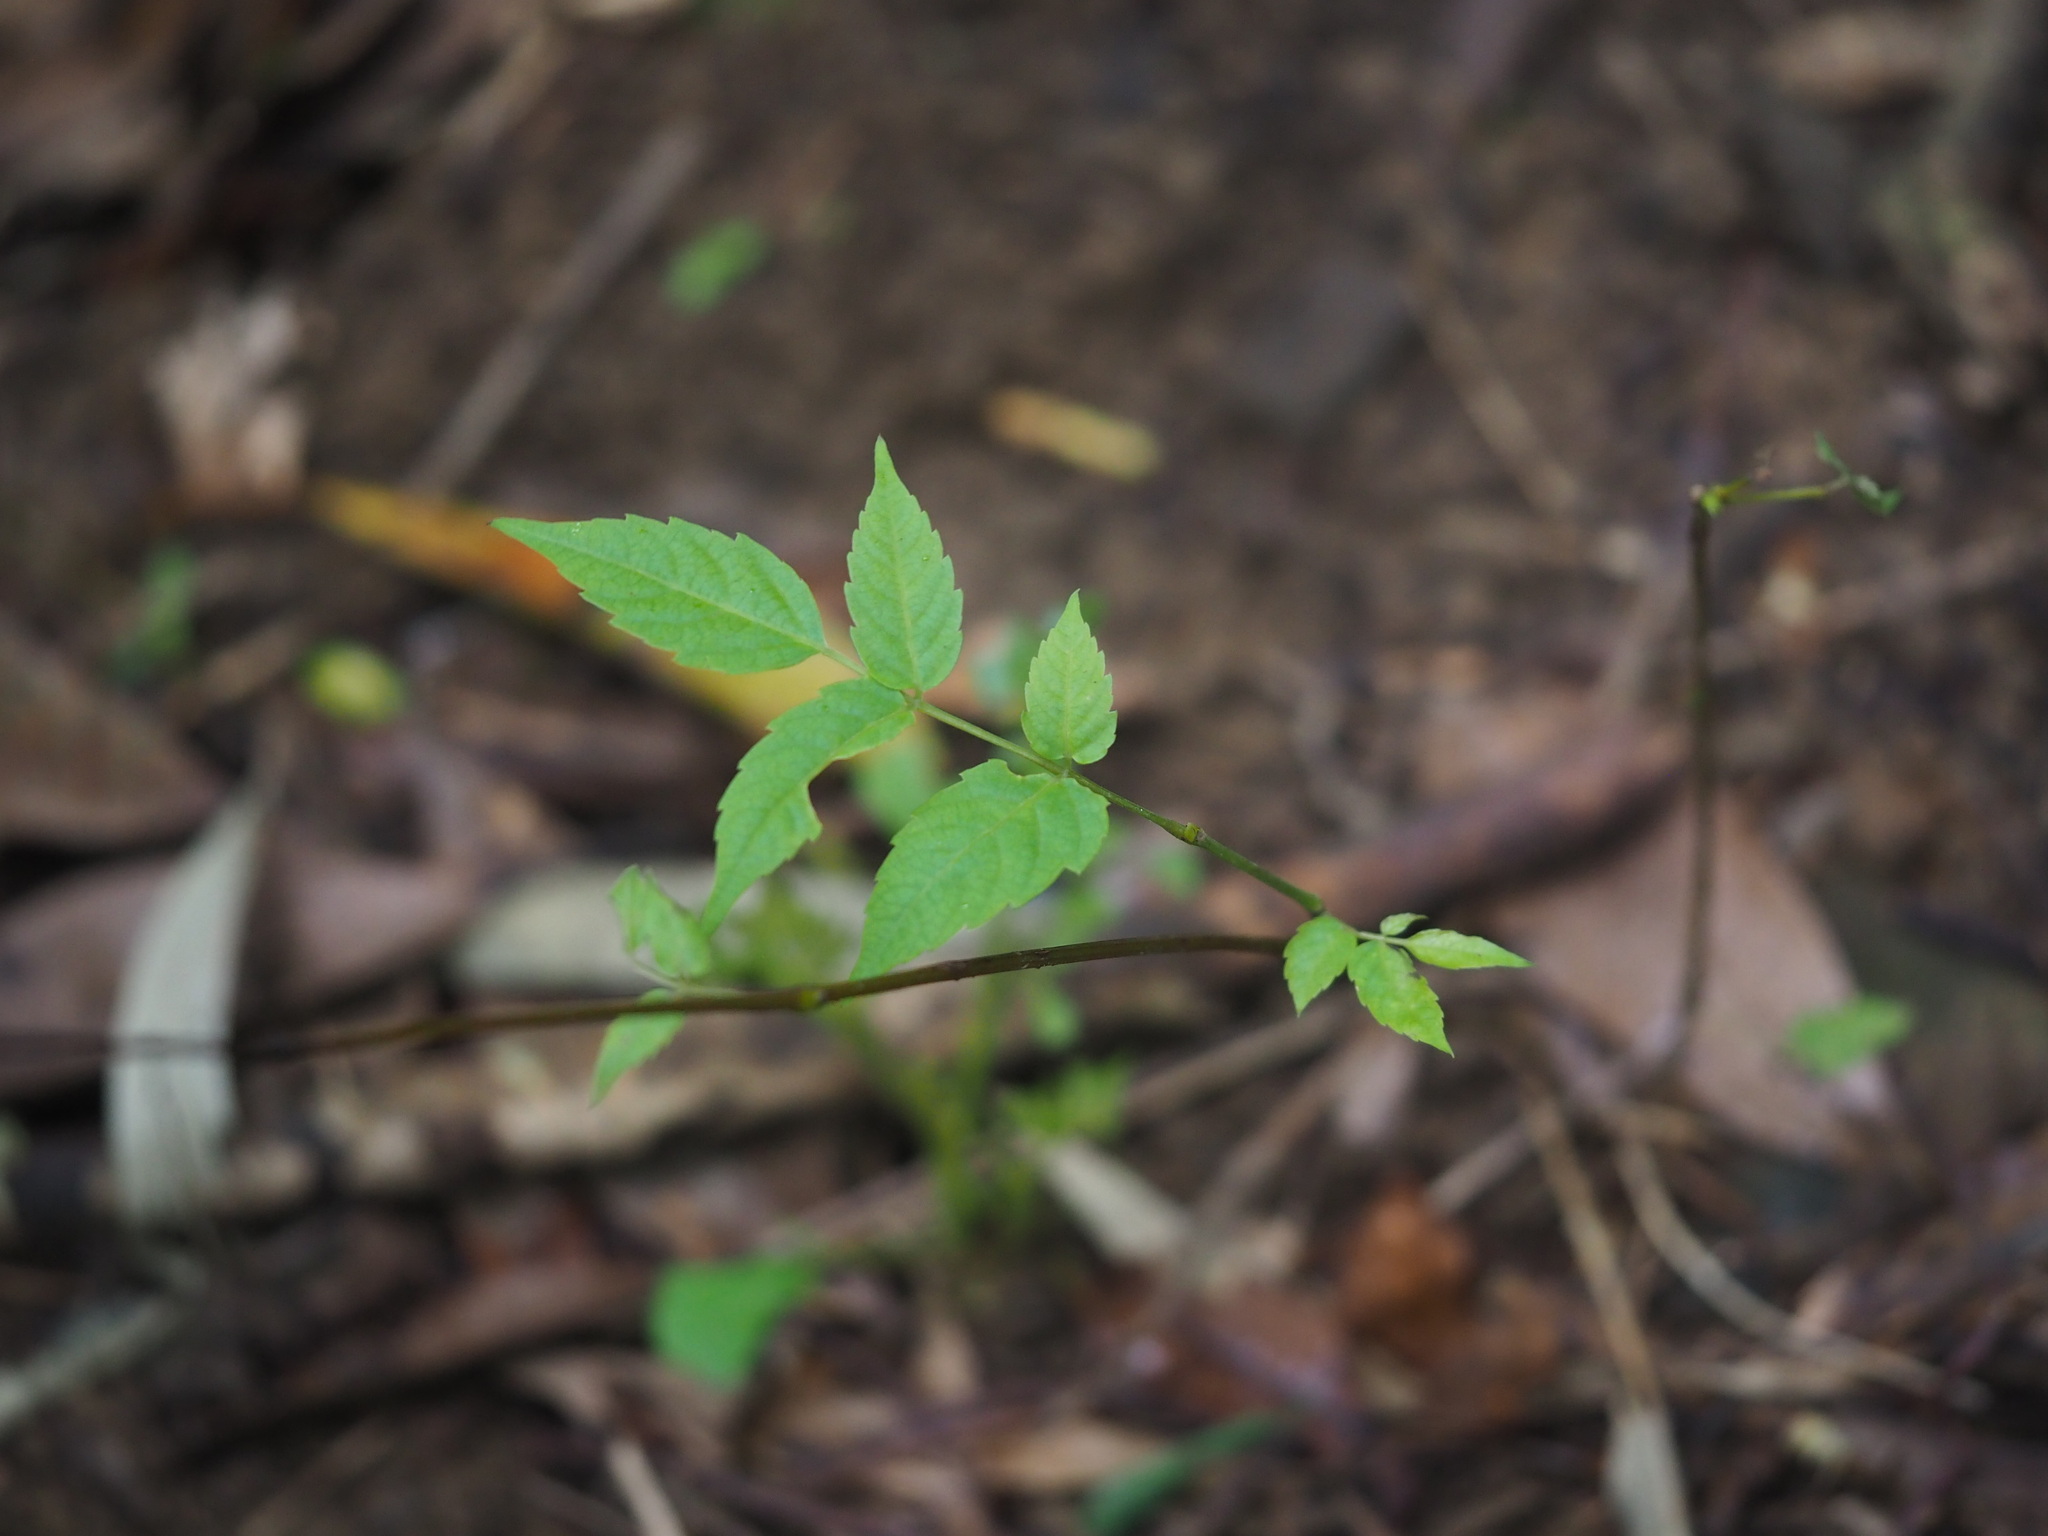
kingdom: Plantae
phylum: Tracheophyta
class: Magnoliopsida
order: Vitales
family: Vitaceae
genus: Nekemias
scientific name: Nekemias cantoniensis
